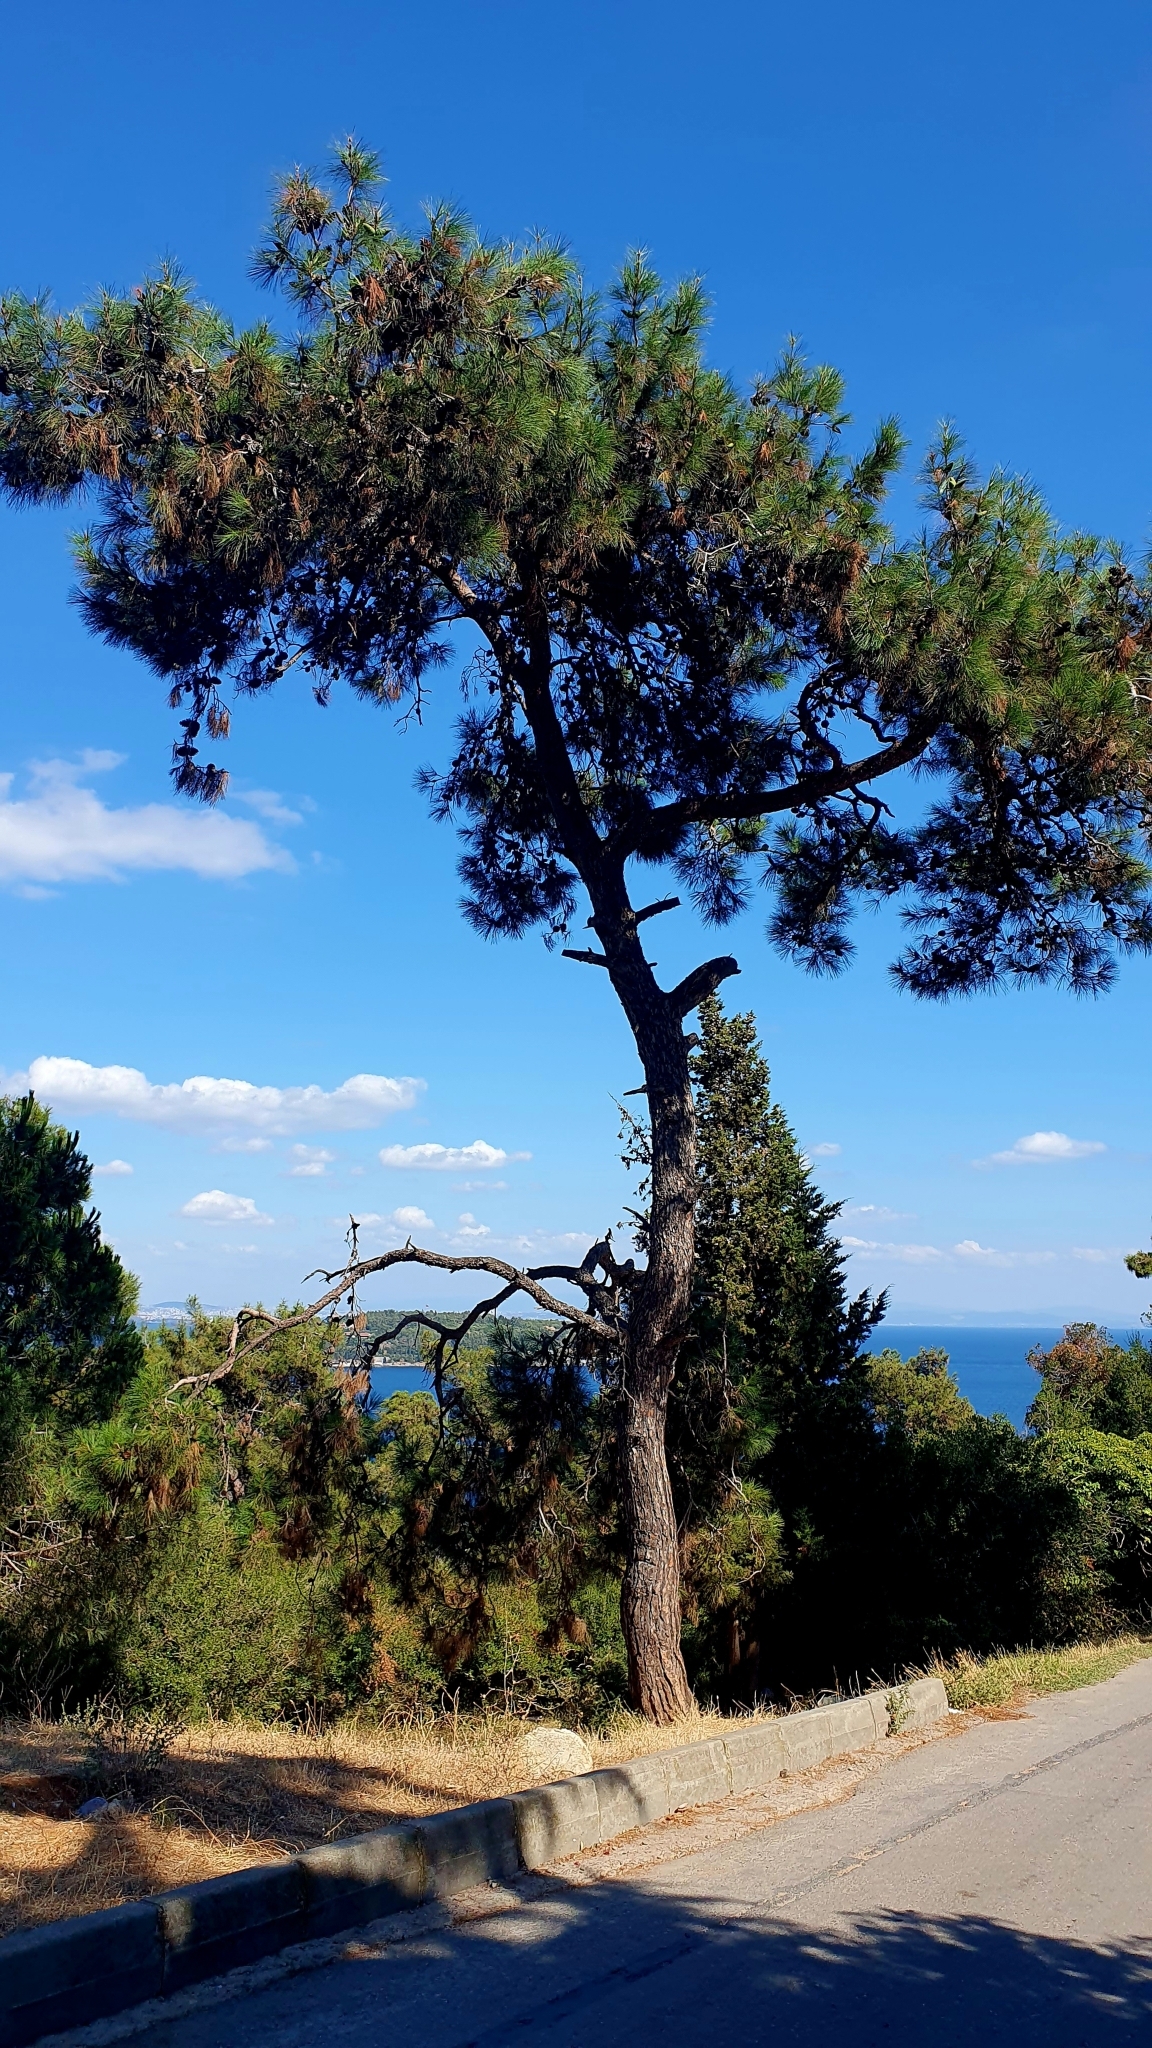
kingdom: Plantae
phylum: Tracheophyta
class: Pinopsida
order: Pinales
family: Pinaceae
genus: Pinus
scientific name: Pinus brutia
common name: Turkish pine
